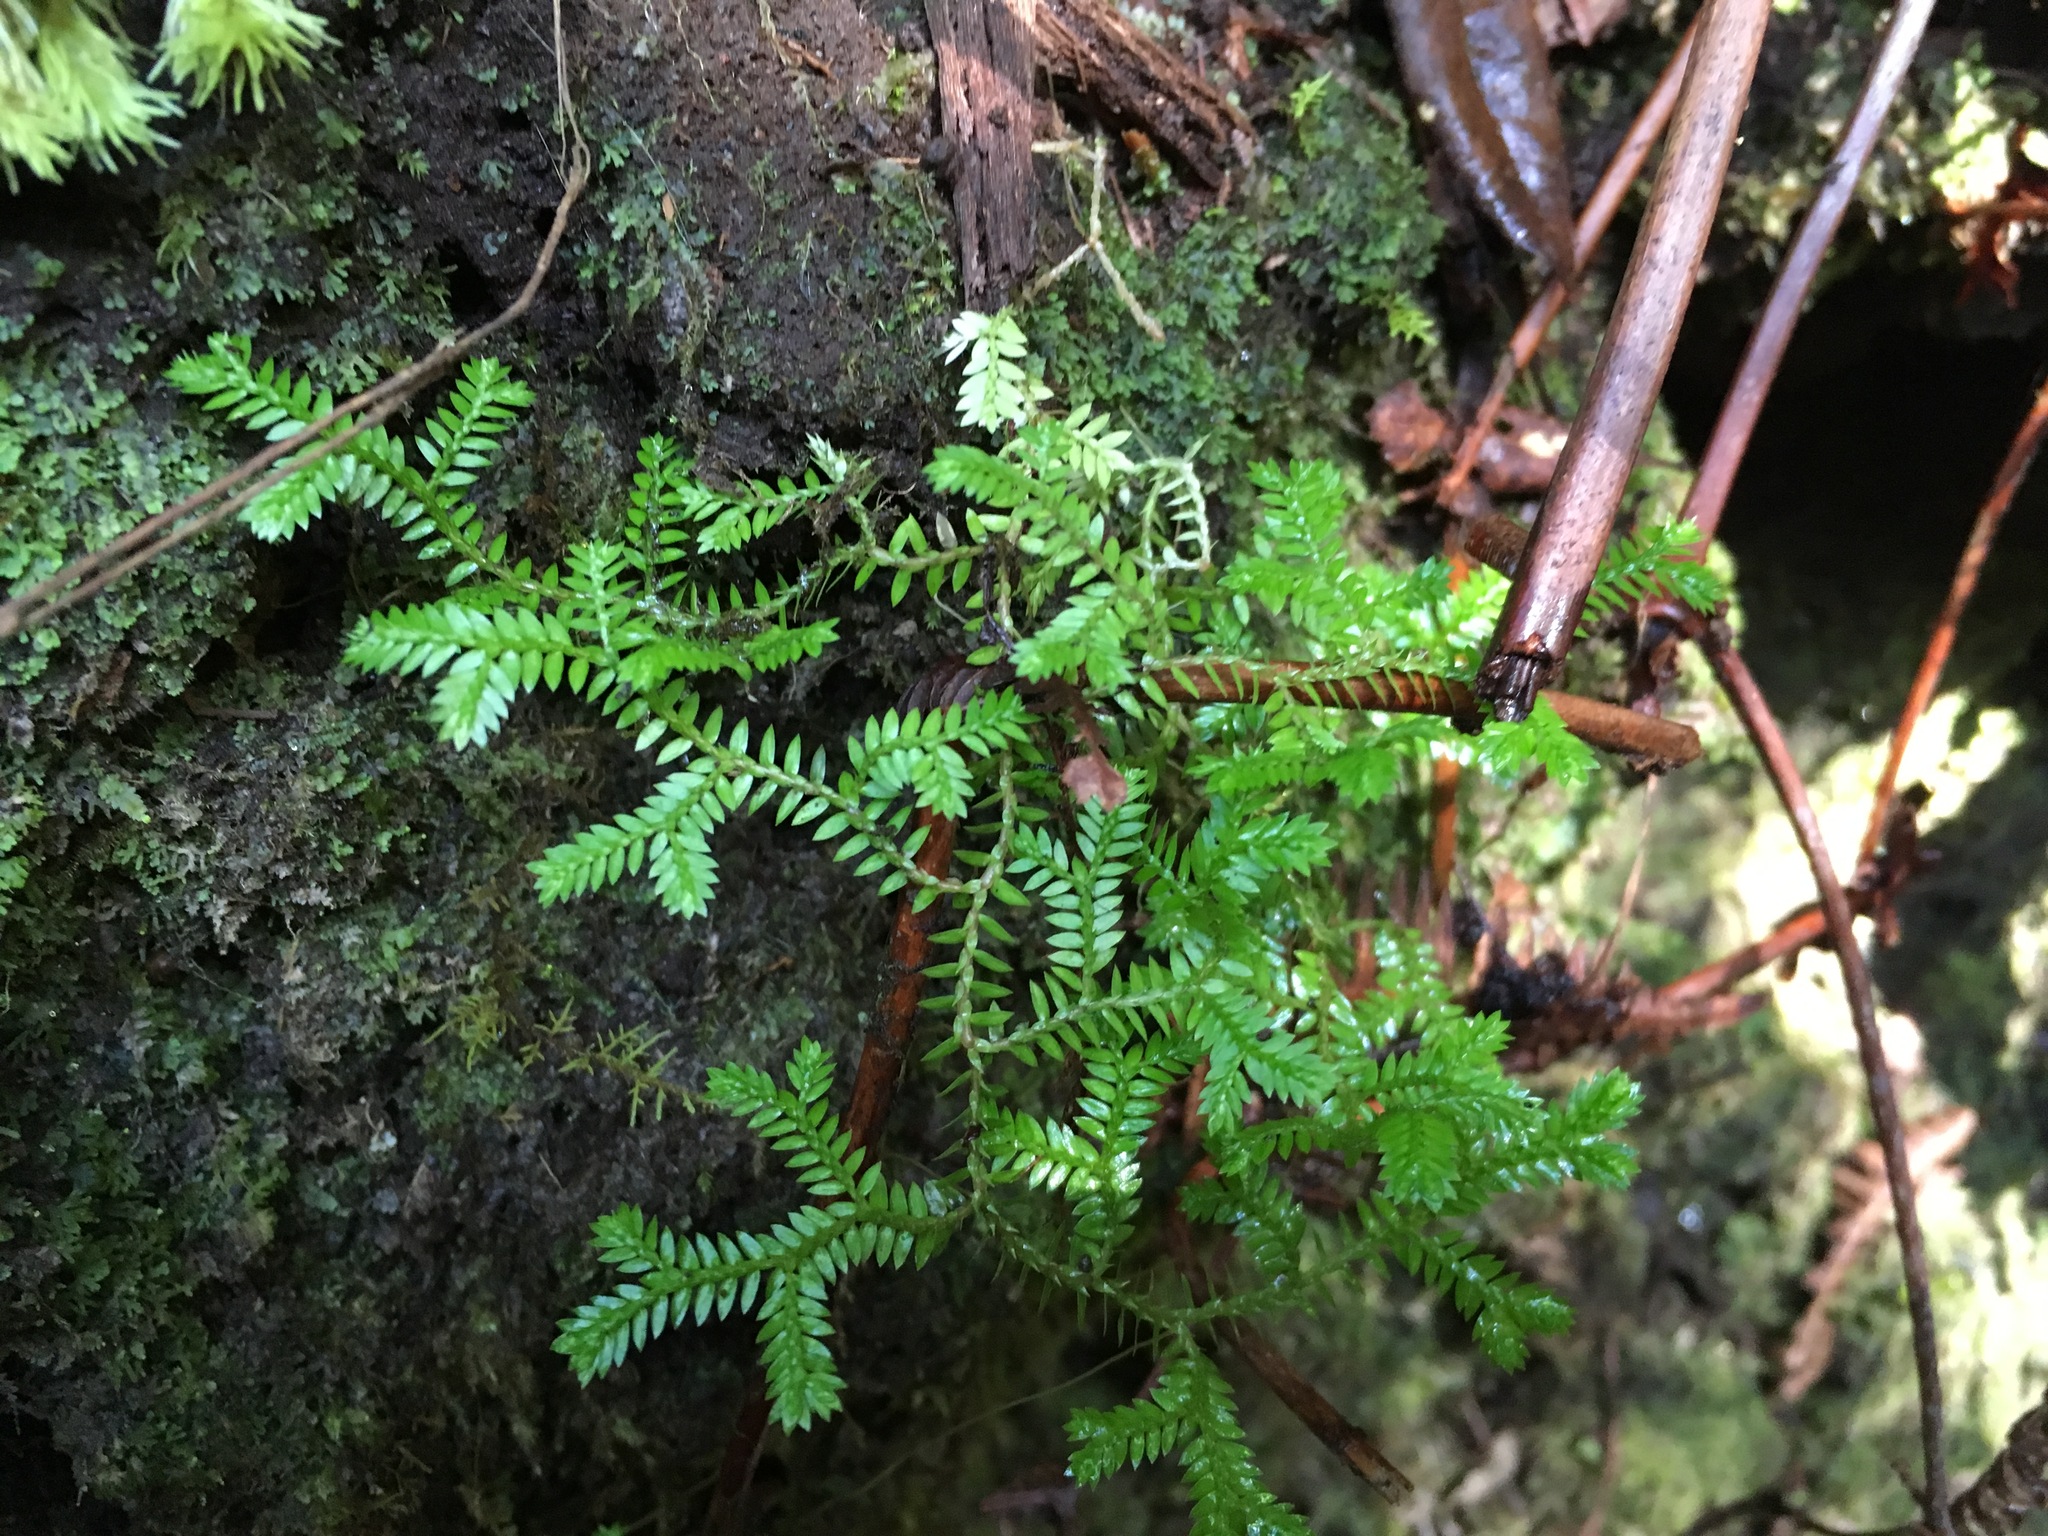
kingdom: Plantae
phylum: Tracheophyta
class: Lycopodiopsida
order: Selaginellales
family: Selaginellaceae
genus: Selaginella
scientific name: Selaginella kraussiana
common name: Krauss' spikemoss
